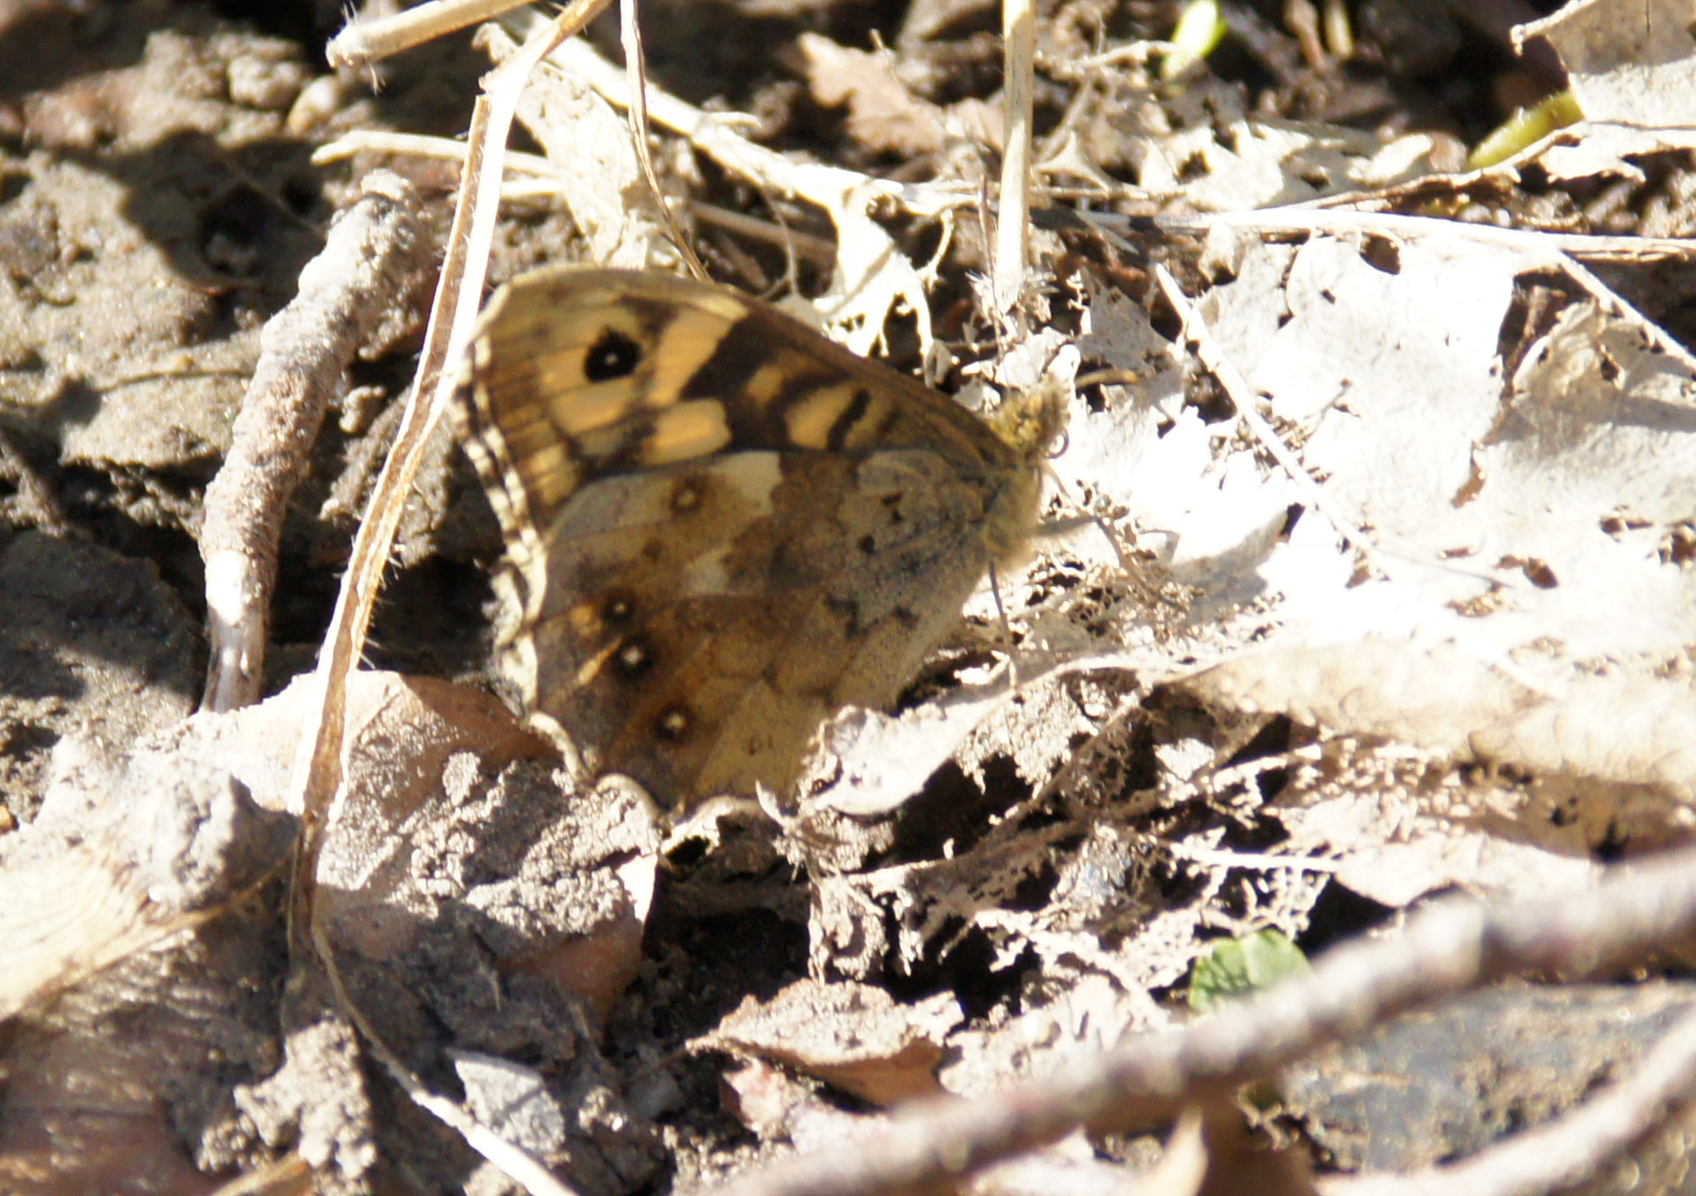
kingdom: Animalia
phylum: Arthropoda
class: Insecta
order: Lepidoptera
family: Nymphalidae
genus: Pararge
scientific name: Pararge aegeria
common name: Speckled wood
